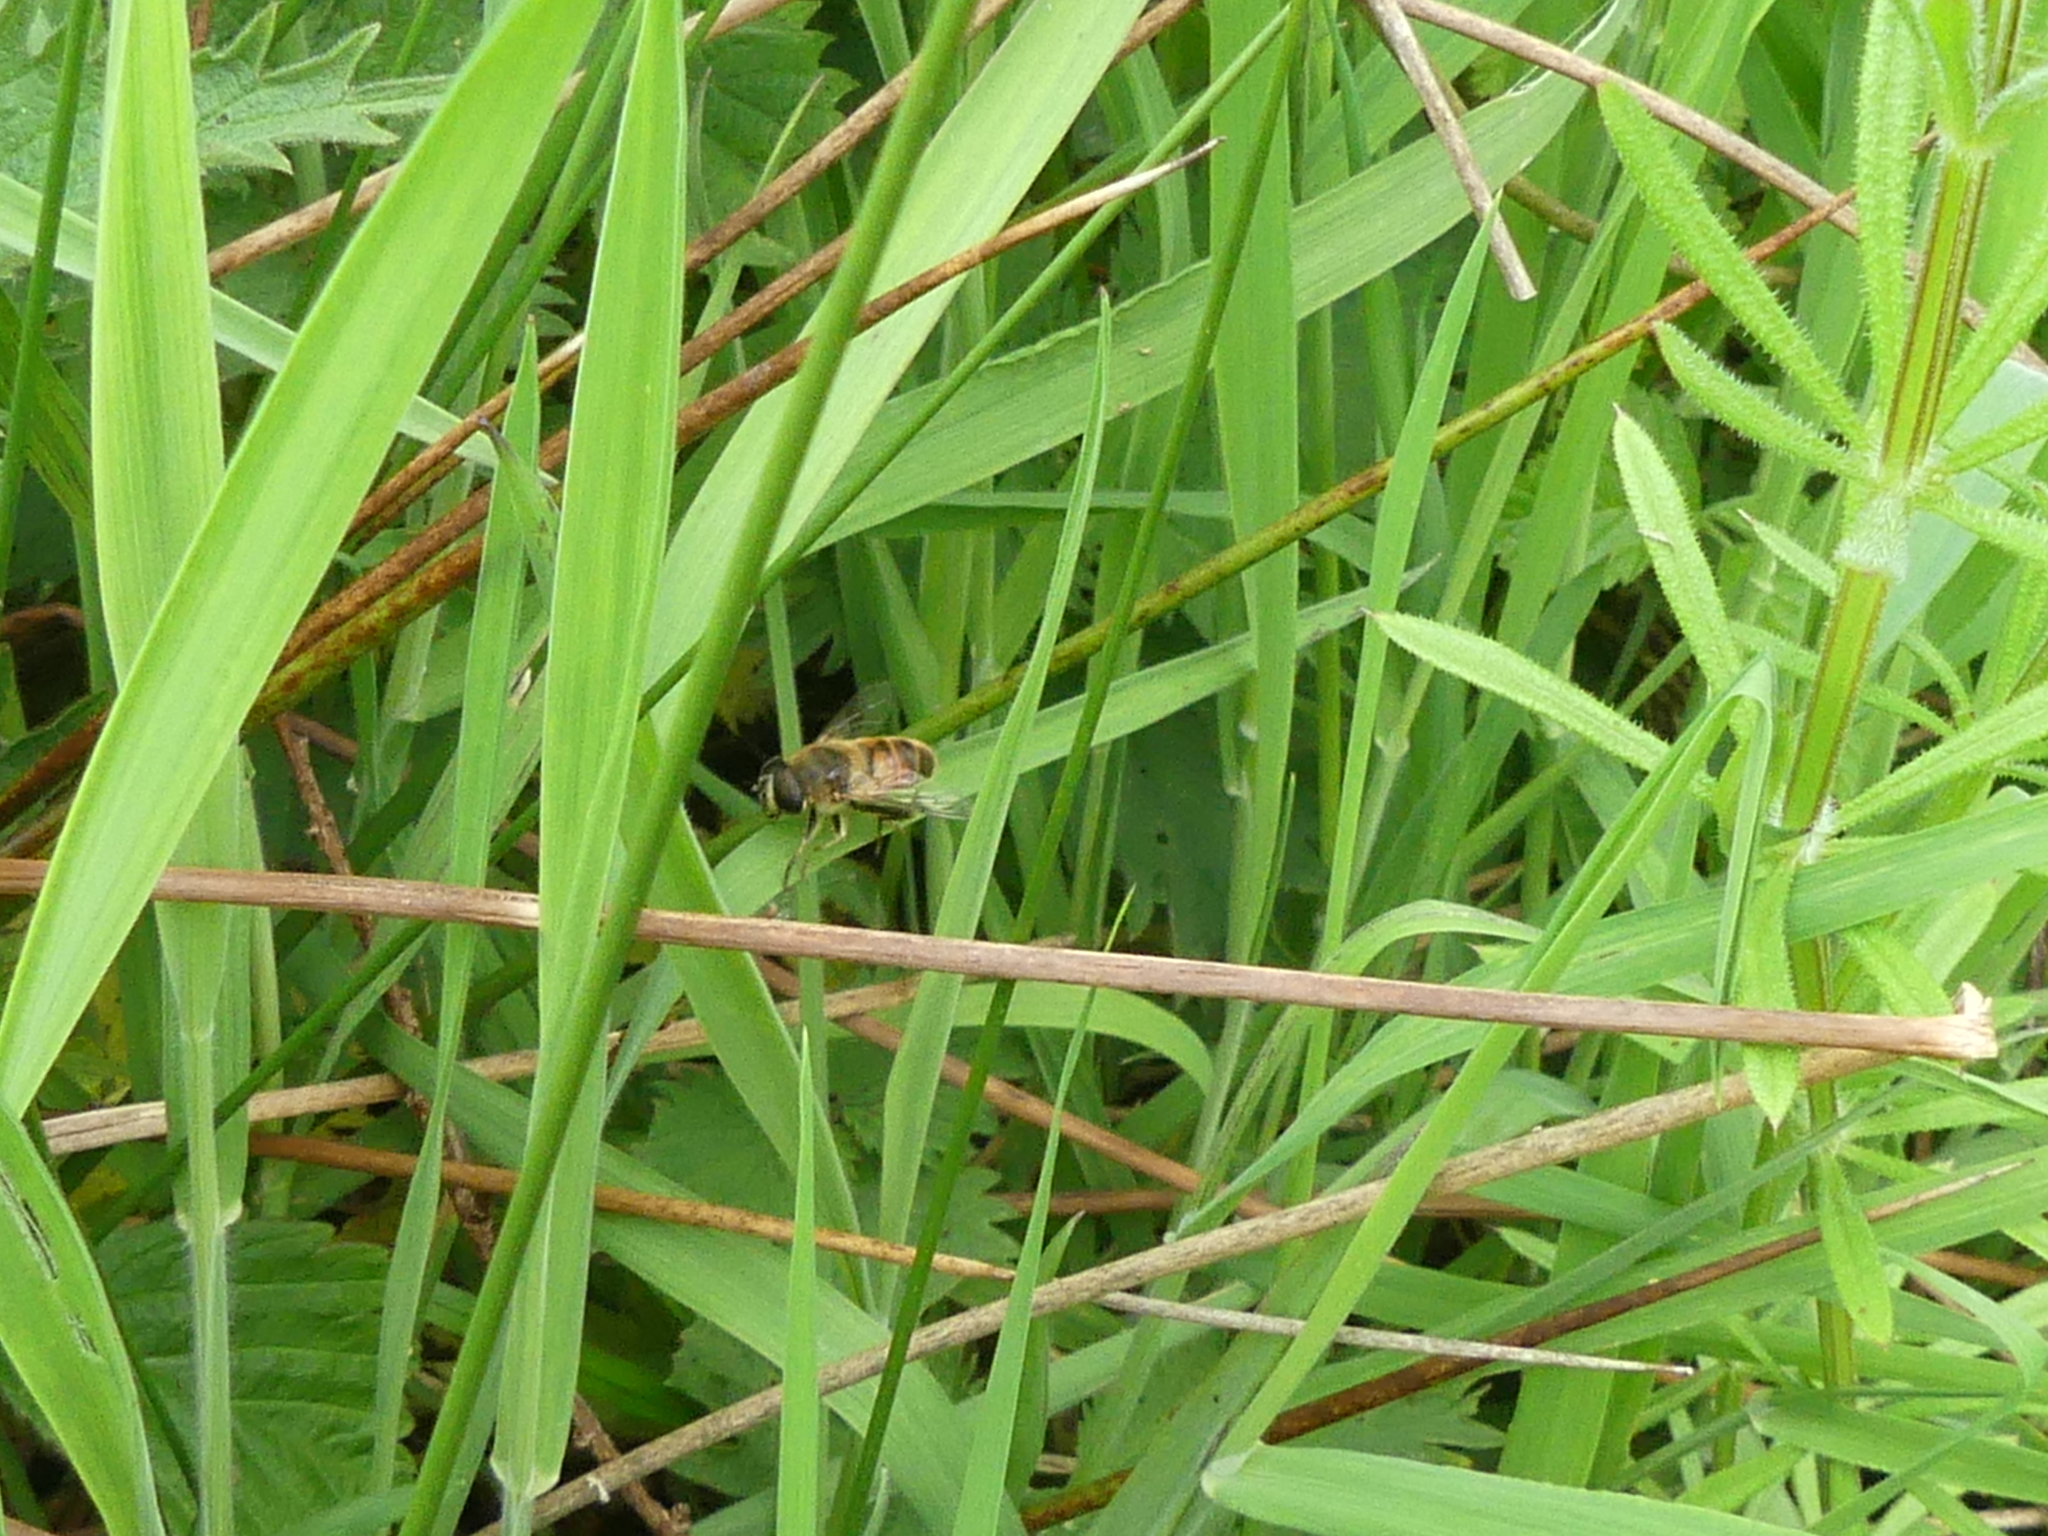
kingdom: Animalia
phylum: Arthropoda
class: Insecta
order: Diptera
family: Syrphidae
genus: Eristalis
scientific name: Eristalis tenax
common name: Drone fly
